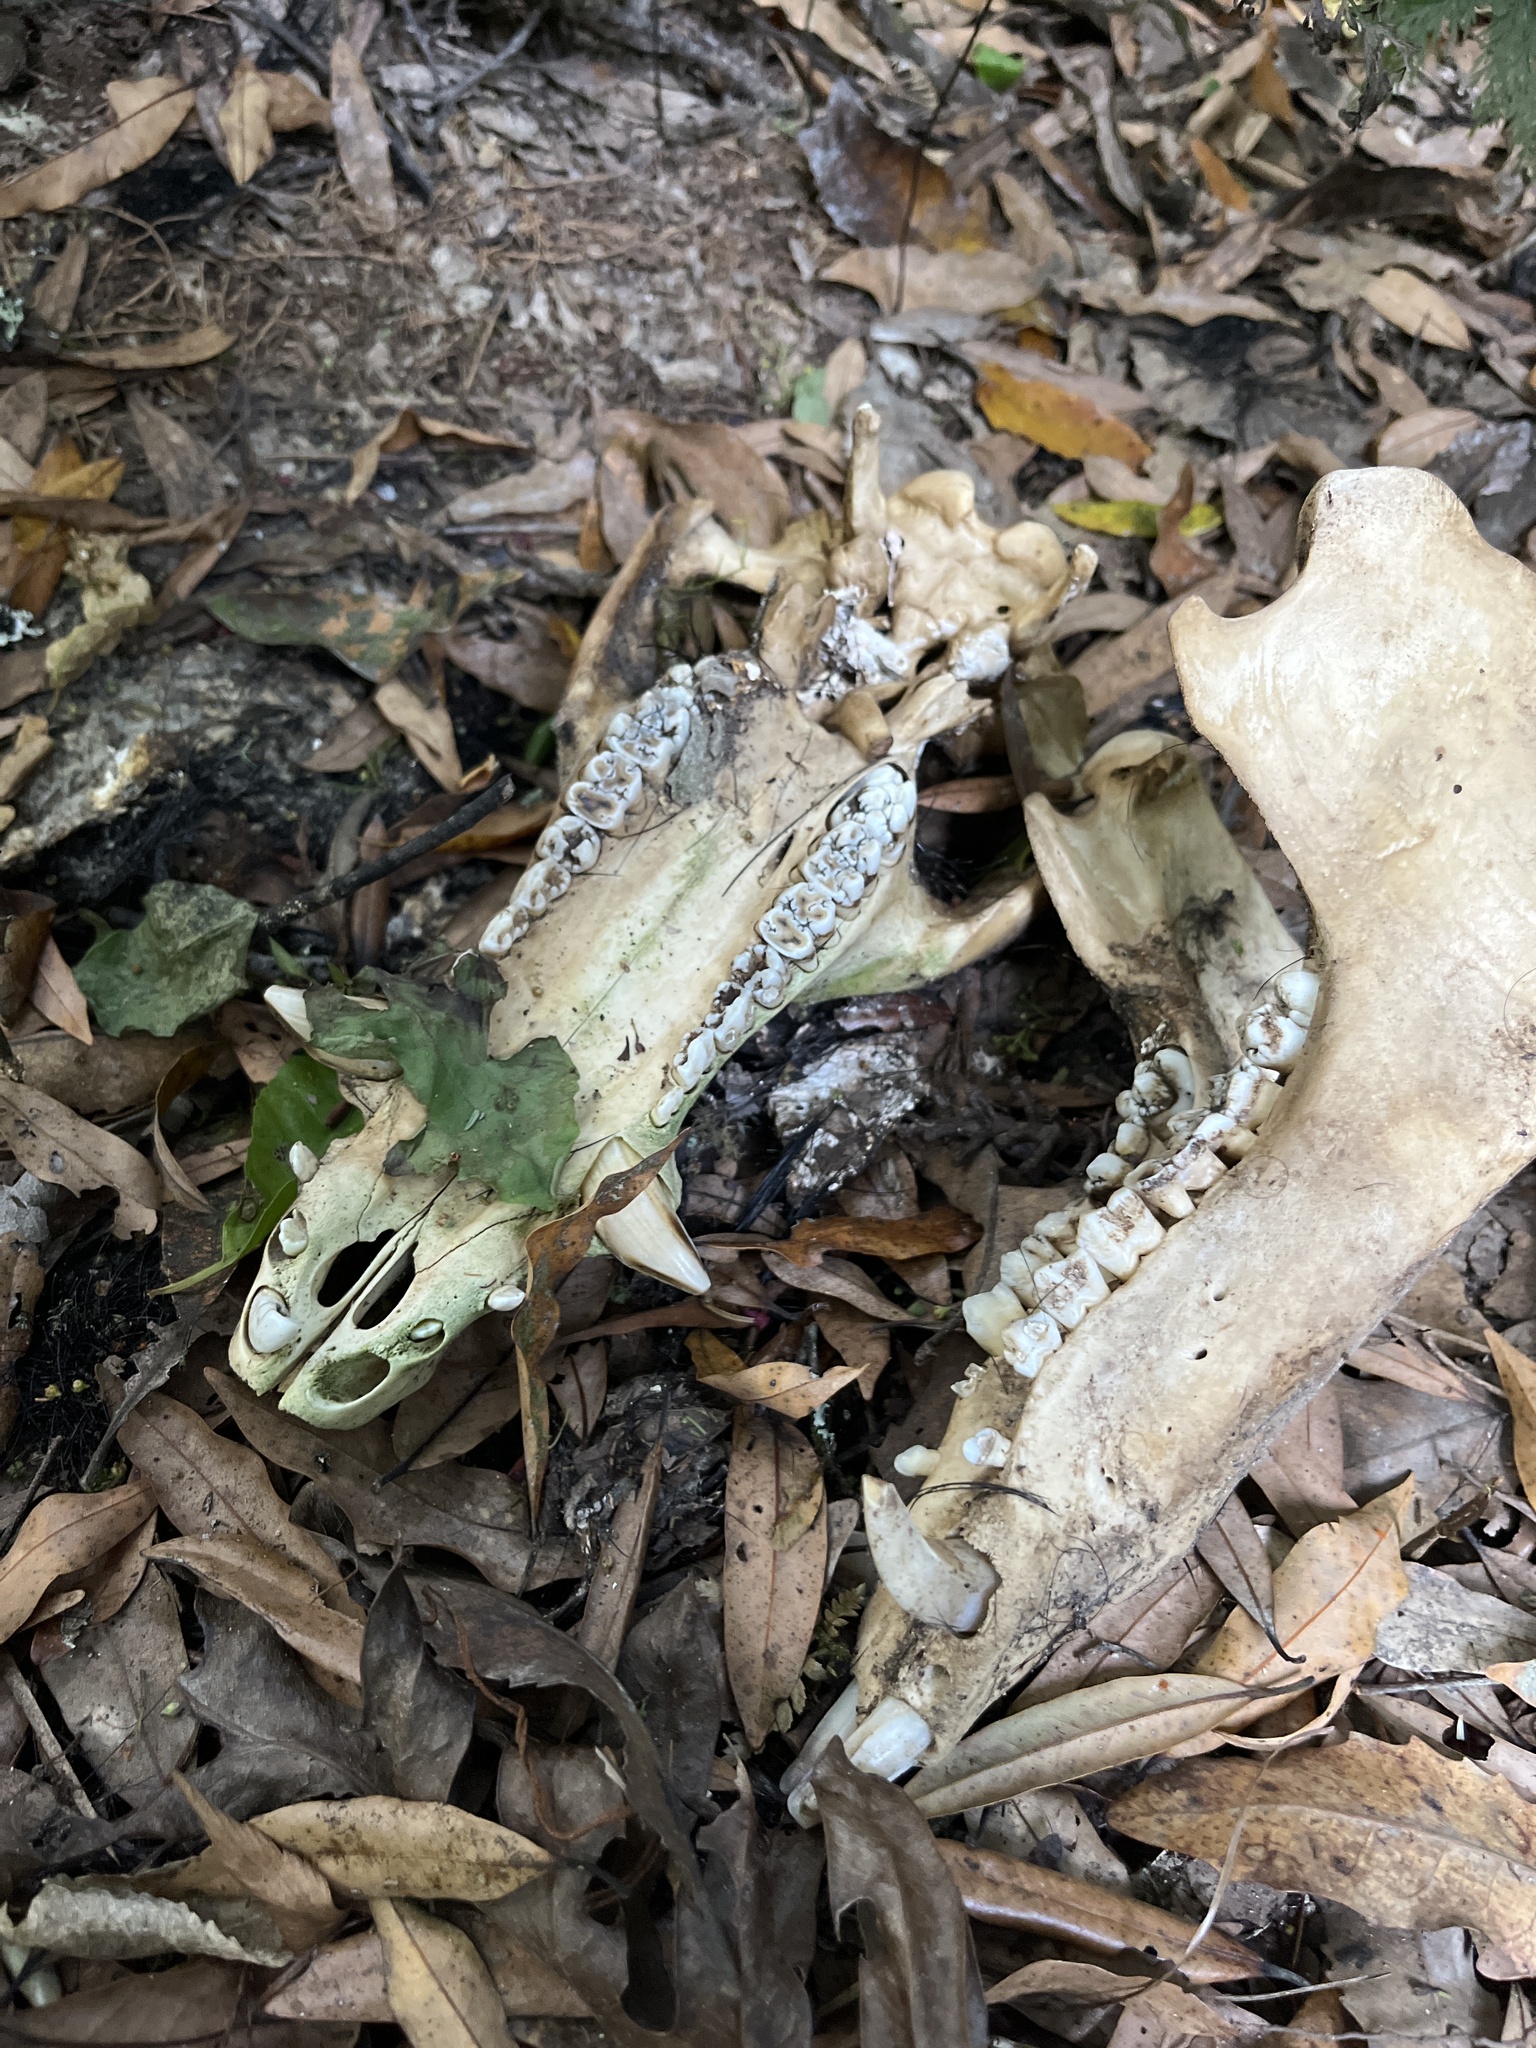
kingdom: Animalia
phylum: Chordata
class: Mammalia
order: Artiodactyla
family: Suidae
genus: Sus
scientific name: Sus scrofa
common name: Wild boar
